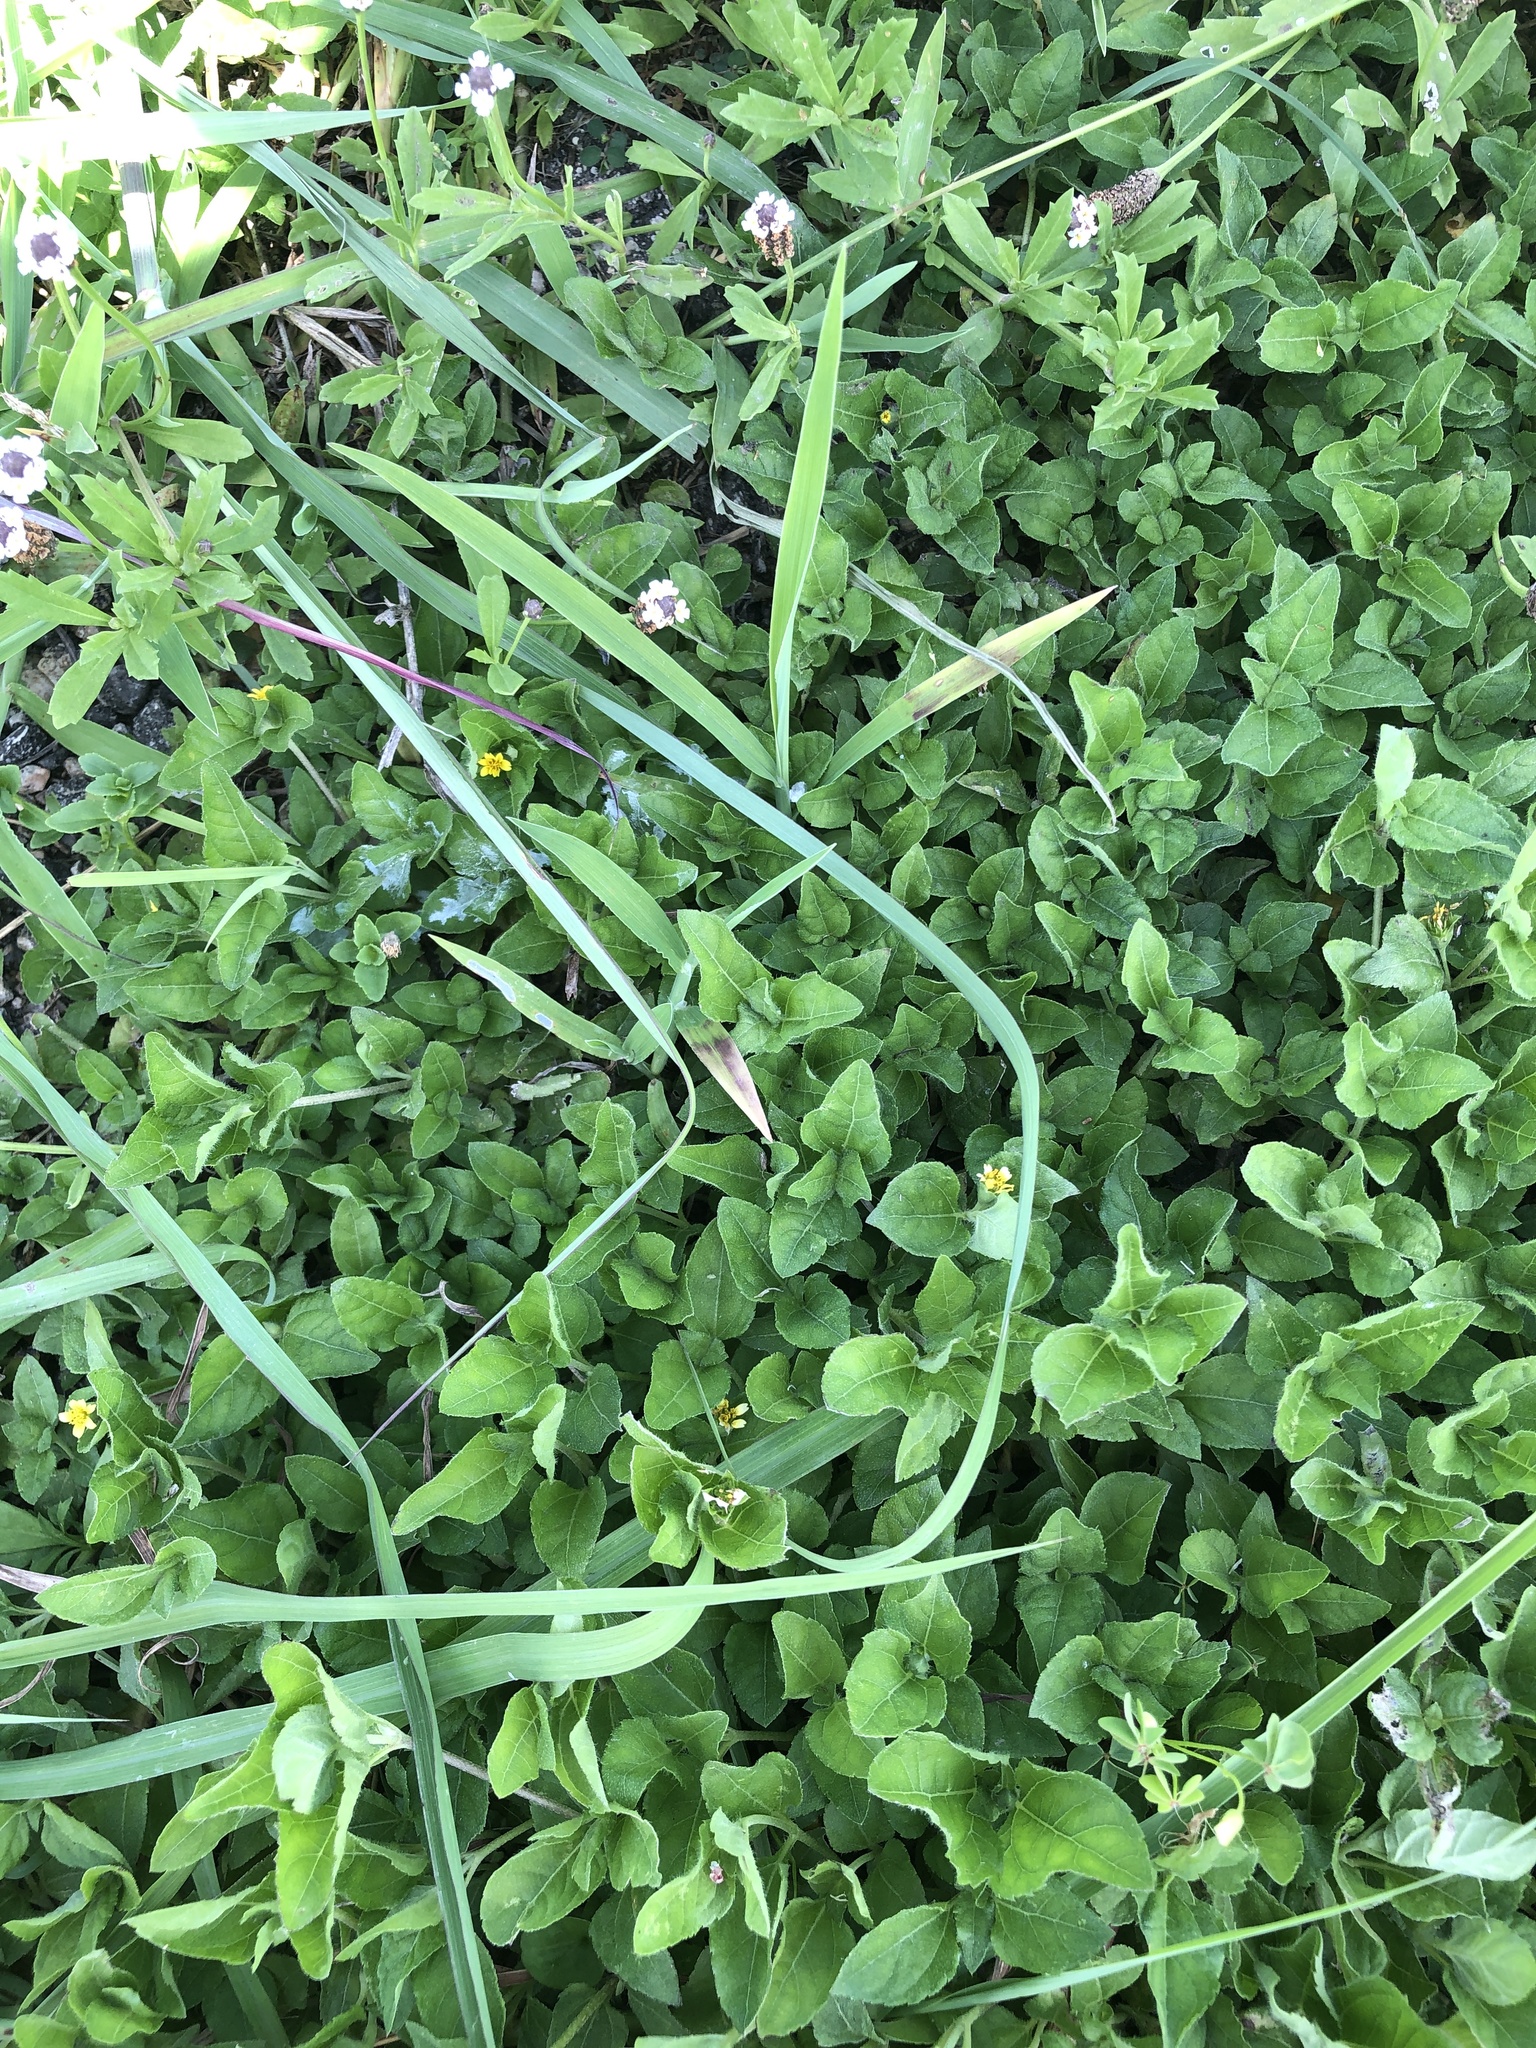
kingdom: Plantae
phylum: Tracheophyta
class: Magnoliopsida
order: Asterales
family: Asteraceae
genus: Calyptocarpus
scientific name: Calyptocarpus vialis
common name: Straggler daisy
